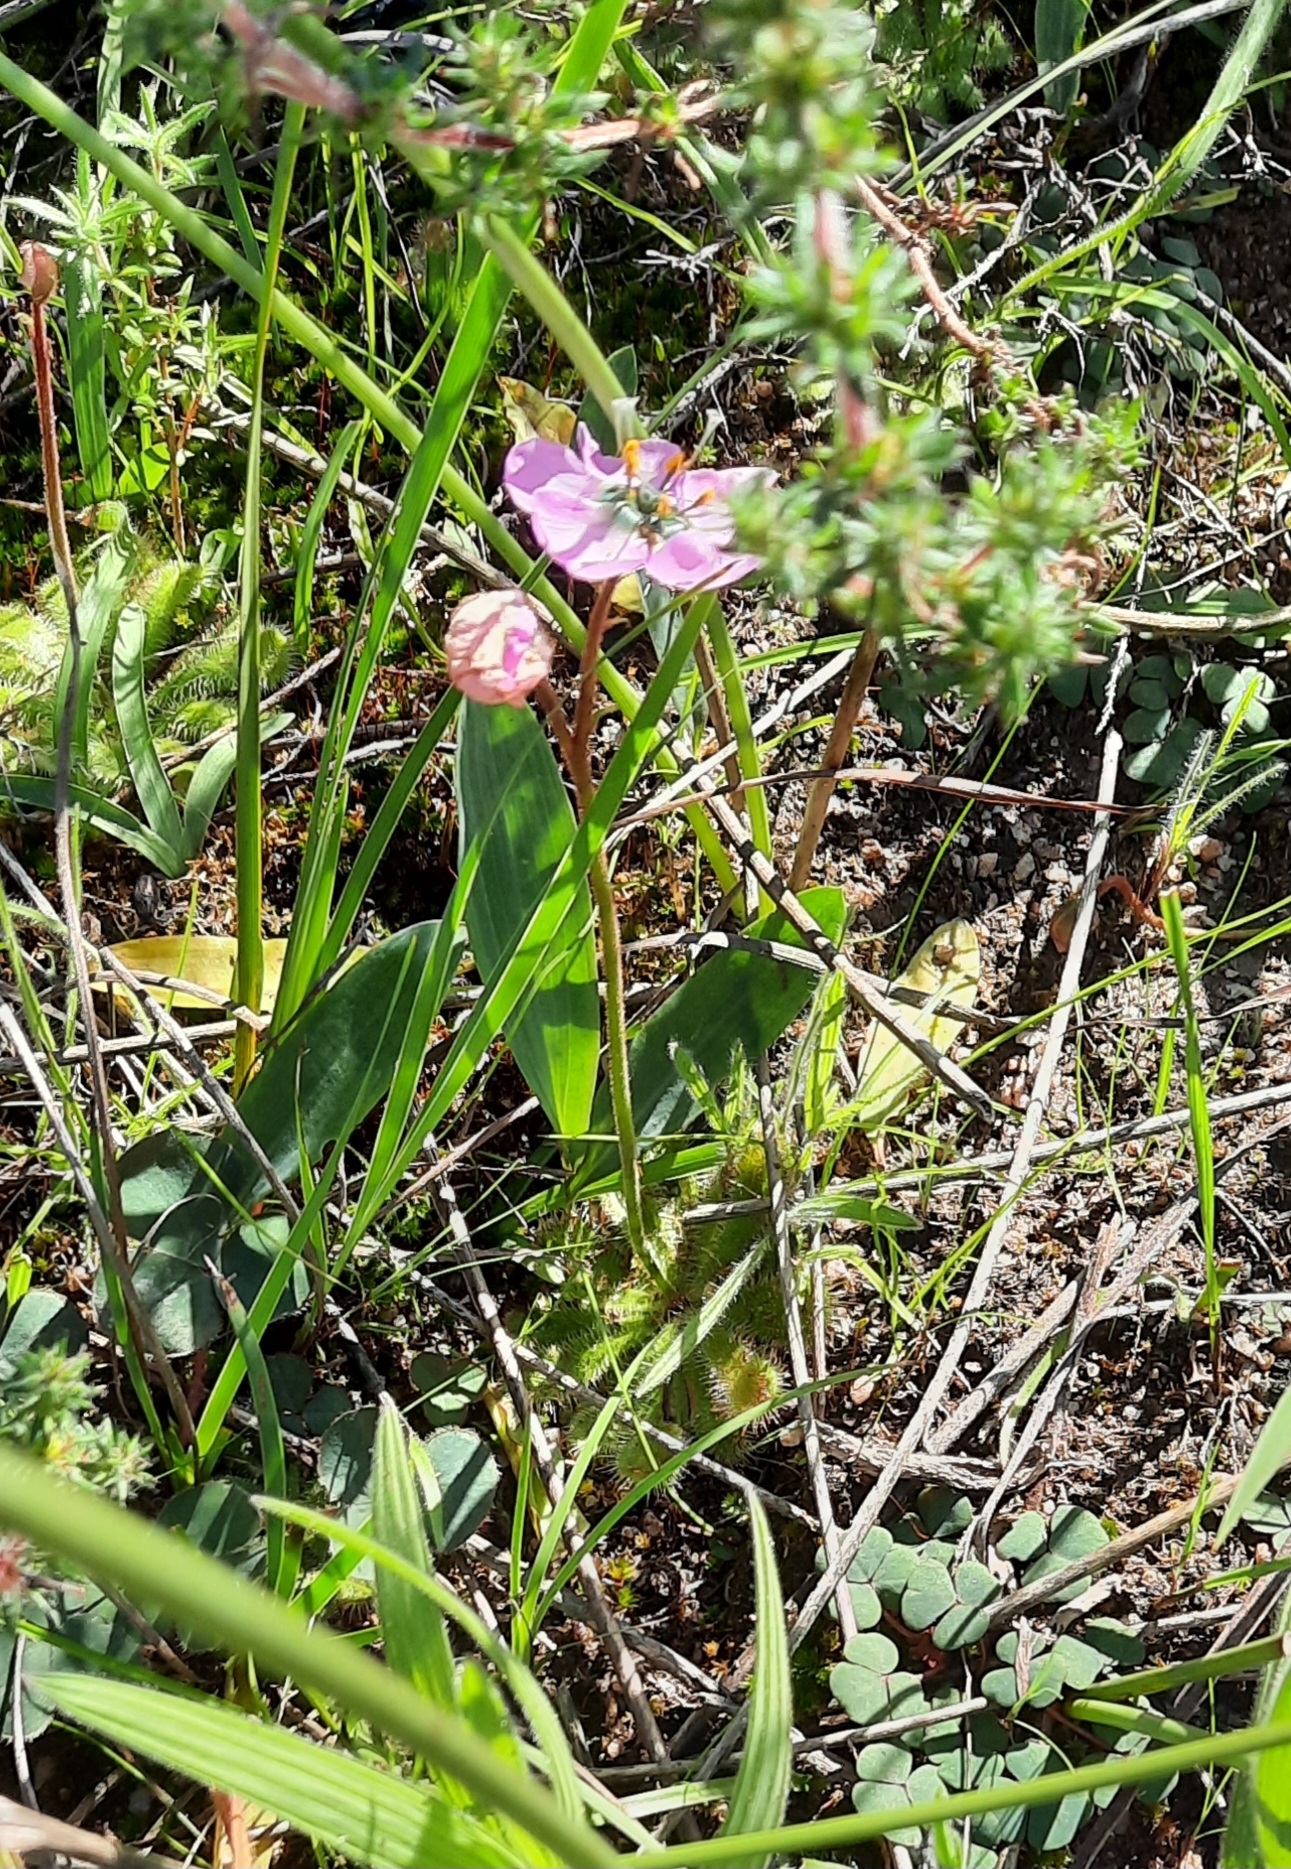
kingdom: Plantae
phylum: Tracheophyta
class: Magnoliopsida
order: Caryophyllales
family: Droseraceae
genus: Drosera
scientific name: Drosera pauciflora
